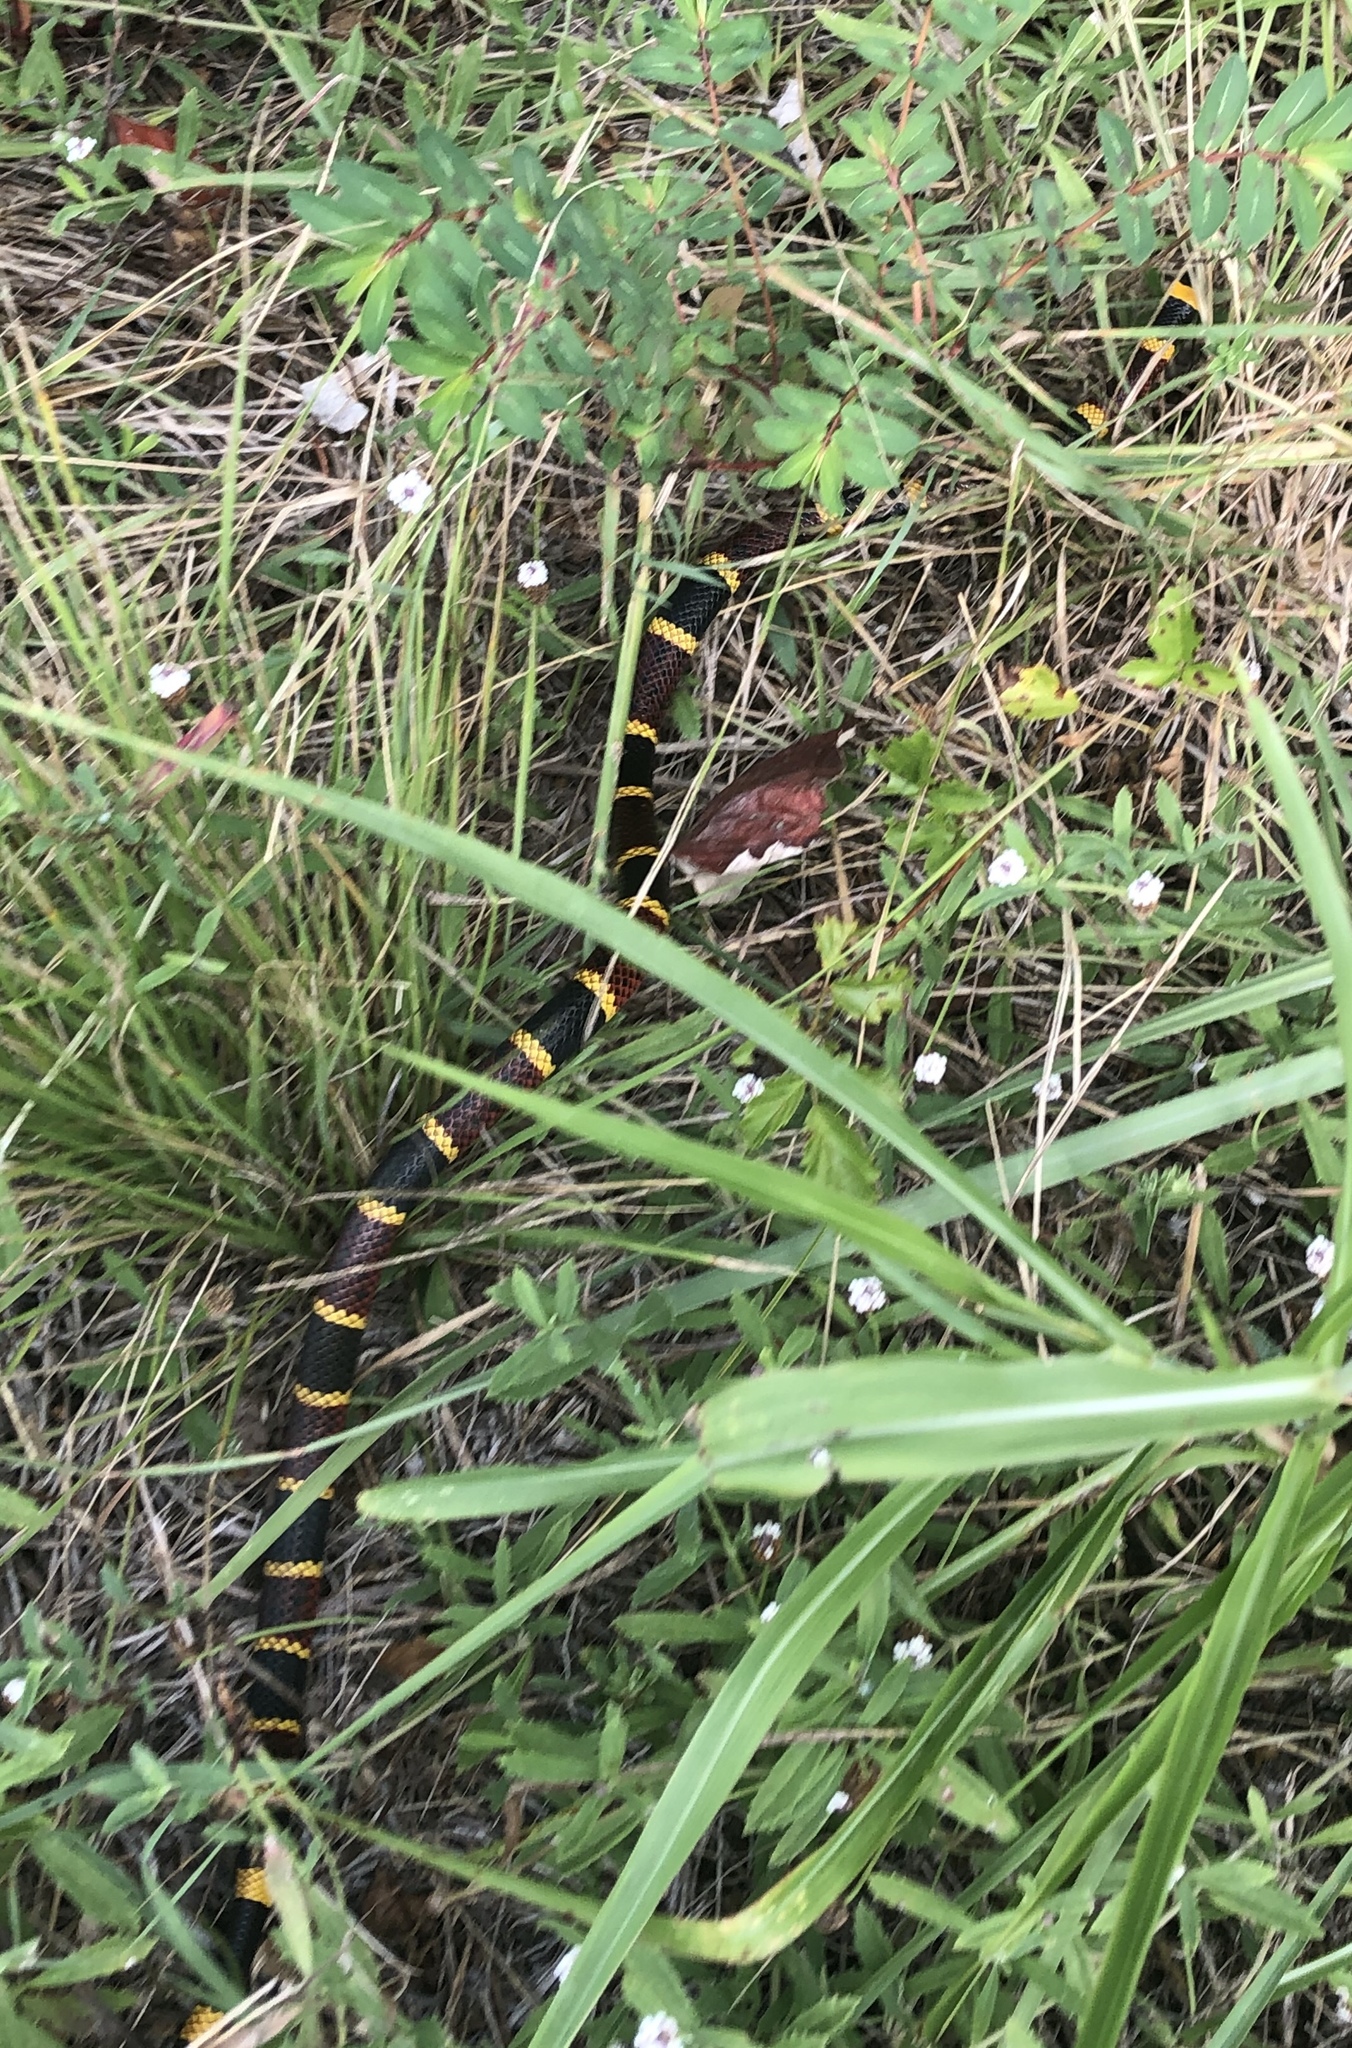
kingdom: Animalia
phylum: Chordata
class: Squamata
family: Elapidae
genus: Micrurus
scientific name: Micrurus tener
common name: Texas coral snake
